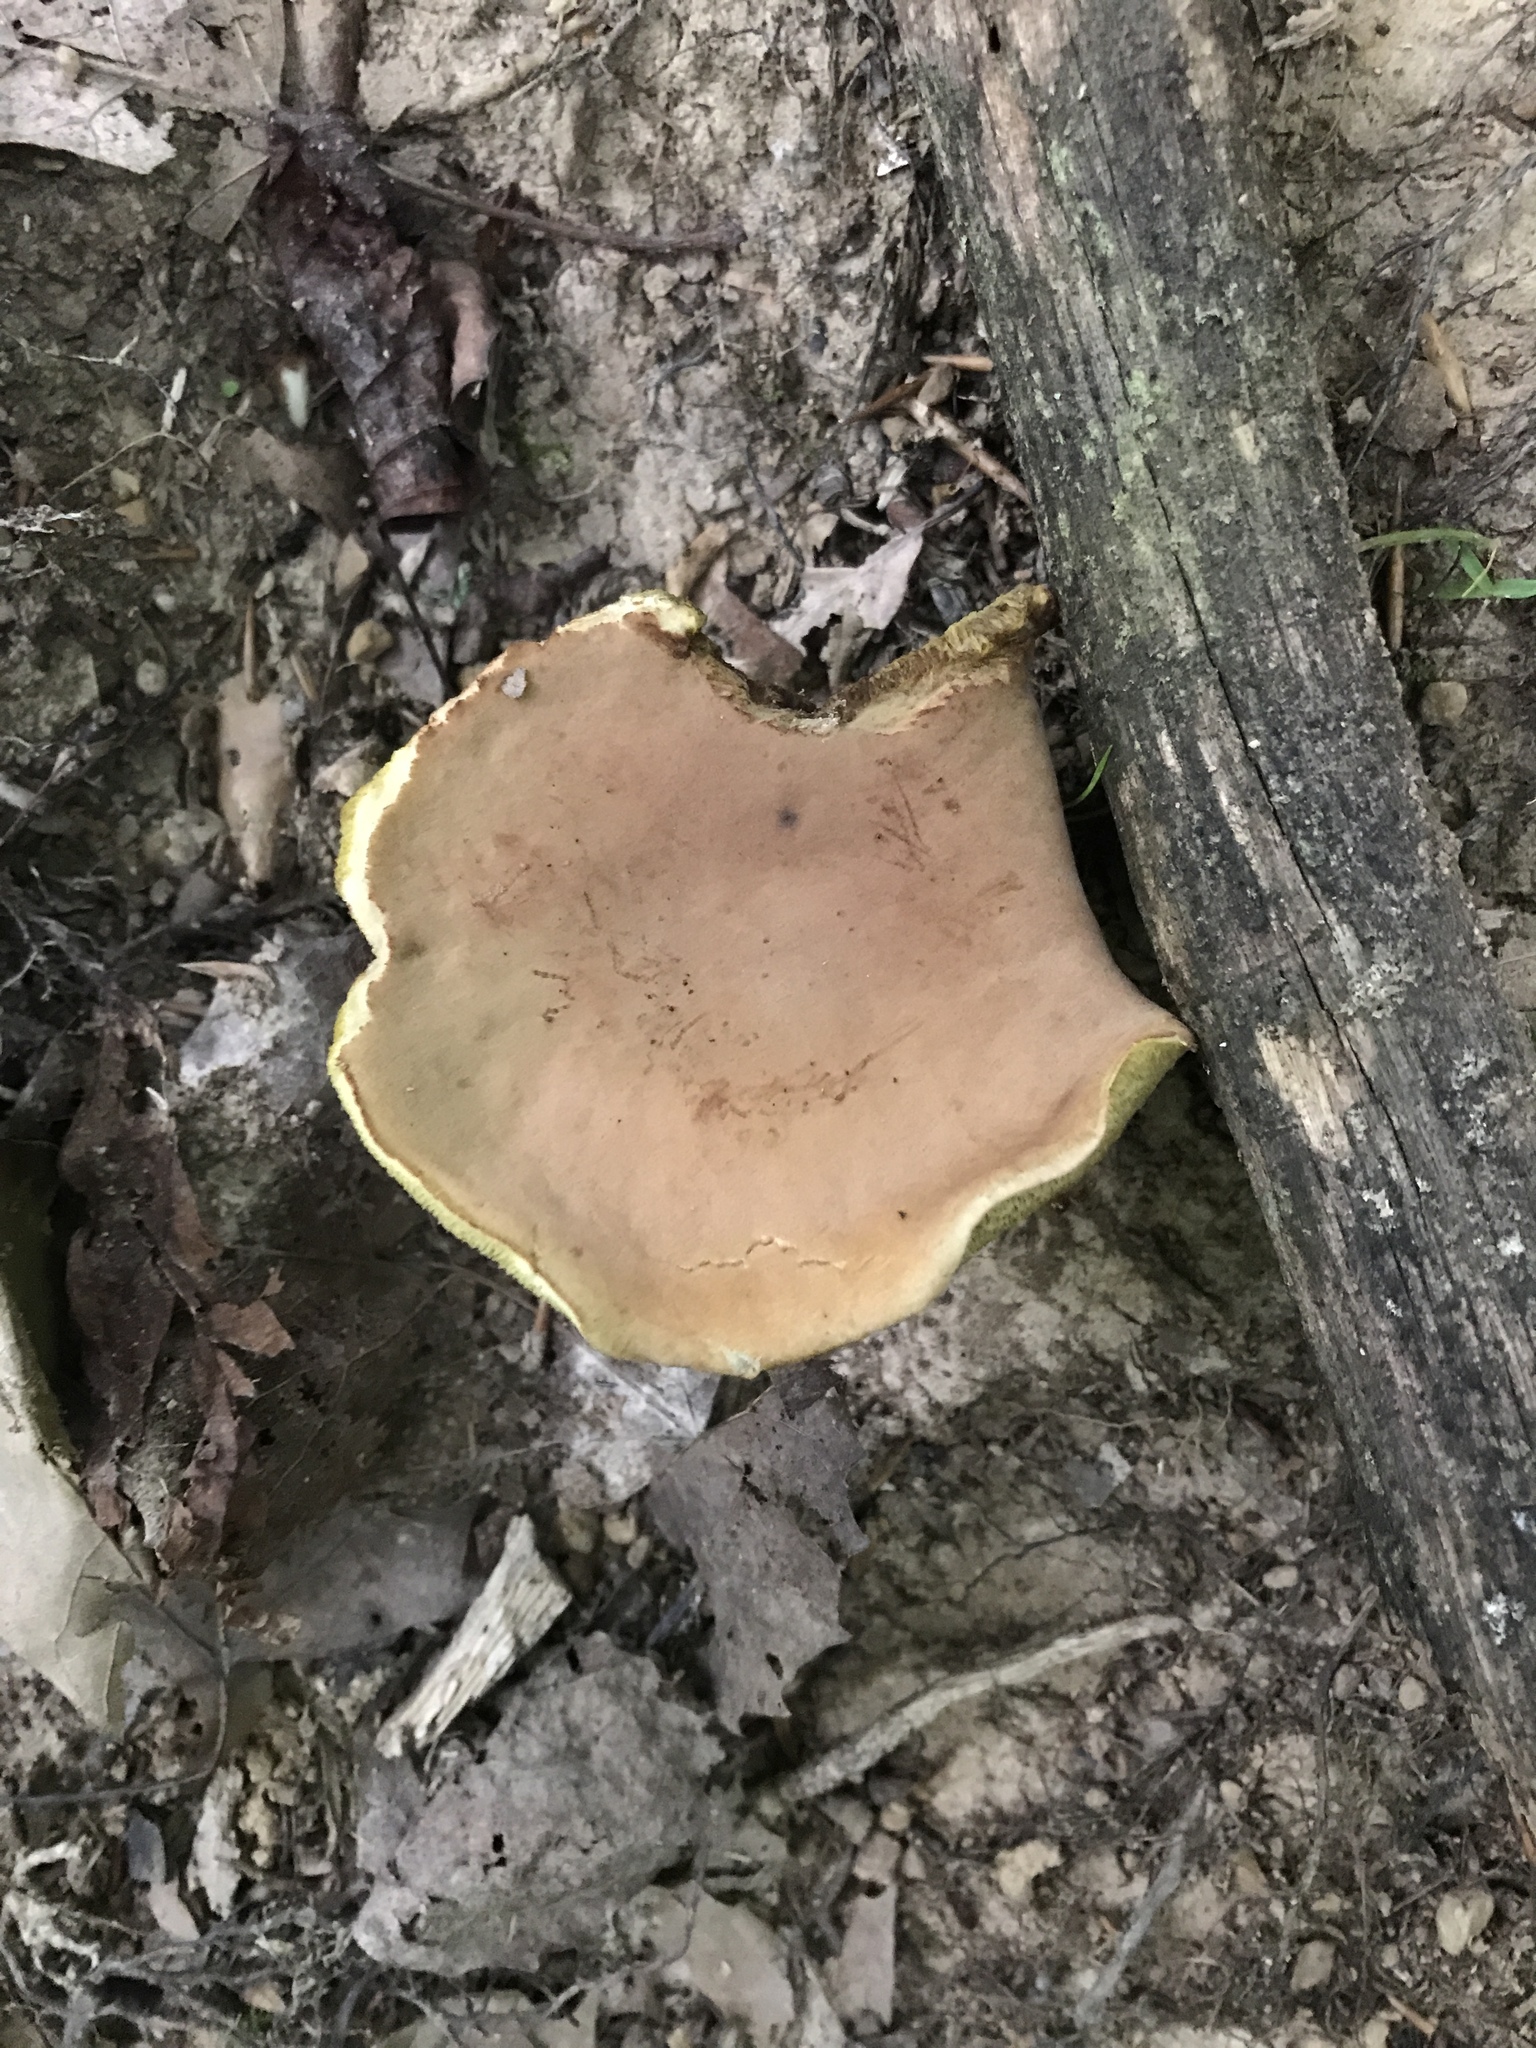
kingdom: Fungi
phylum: Basidiomycota
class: Agaricomycetes
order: Boletales
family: Boletaceae
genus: Hemileccinum
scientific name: Hemileccinum subglabripes
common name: Smoothish-stemmed bolete
